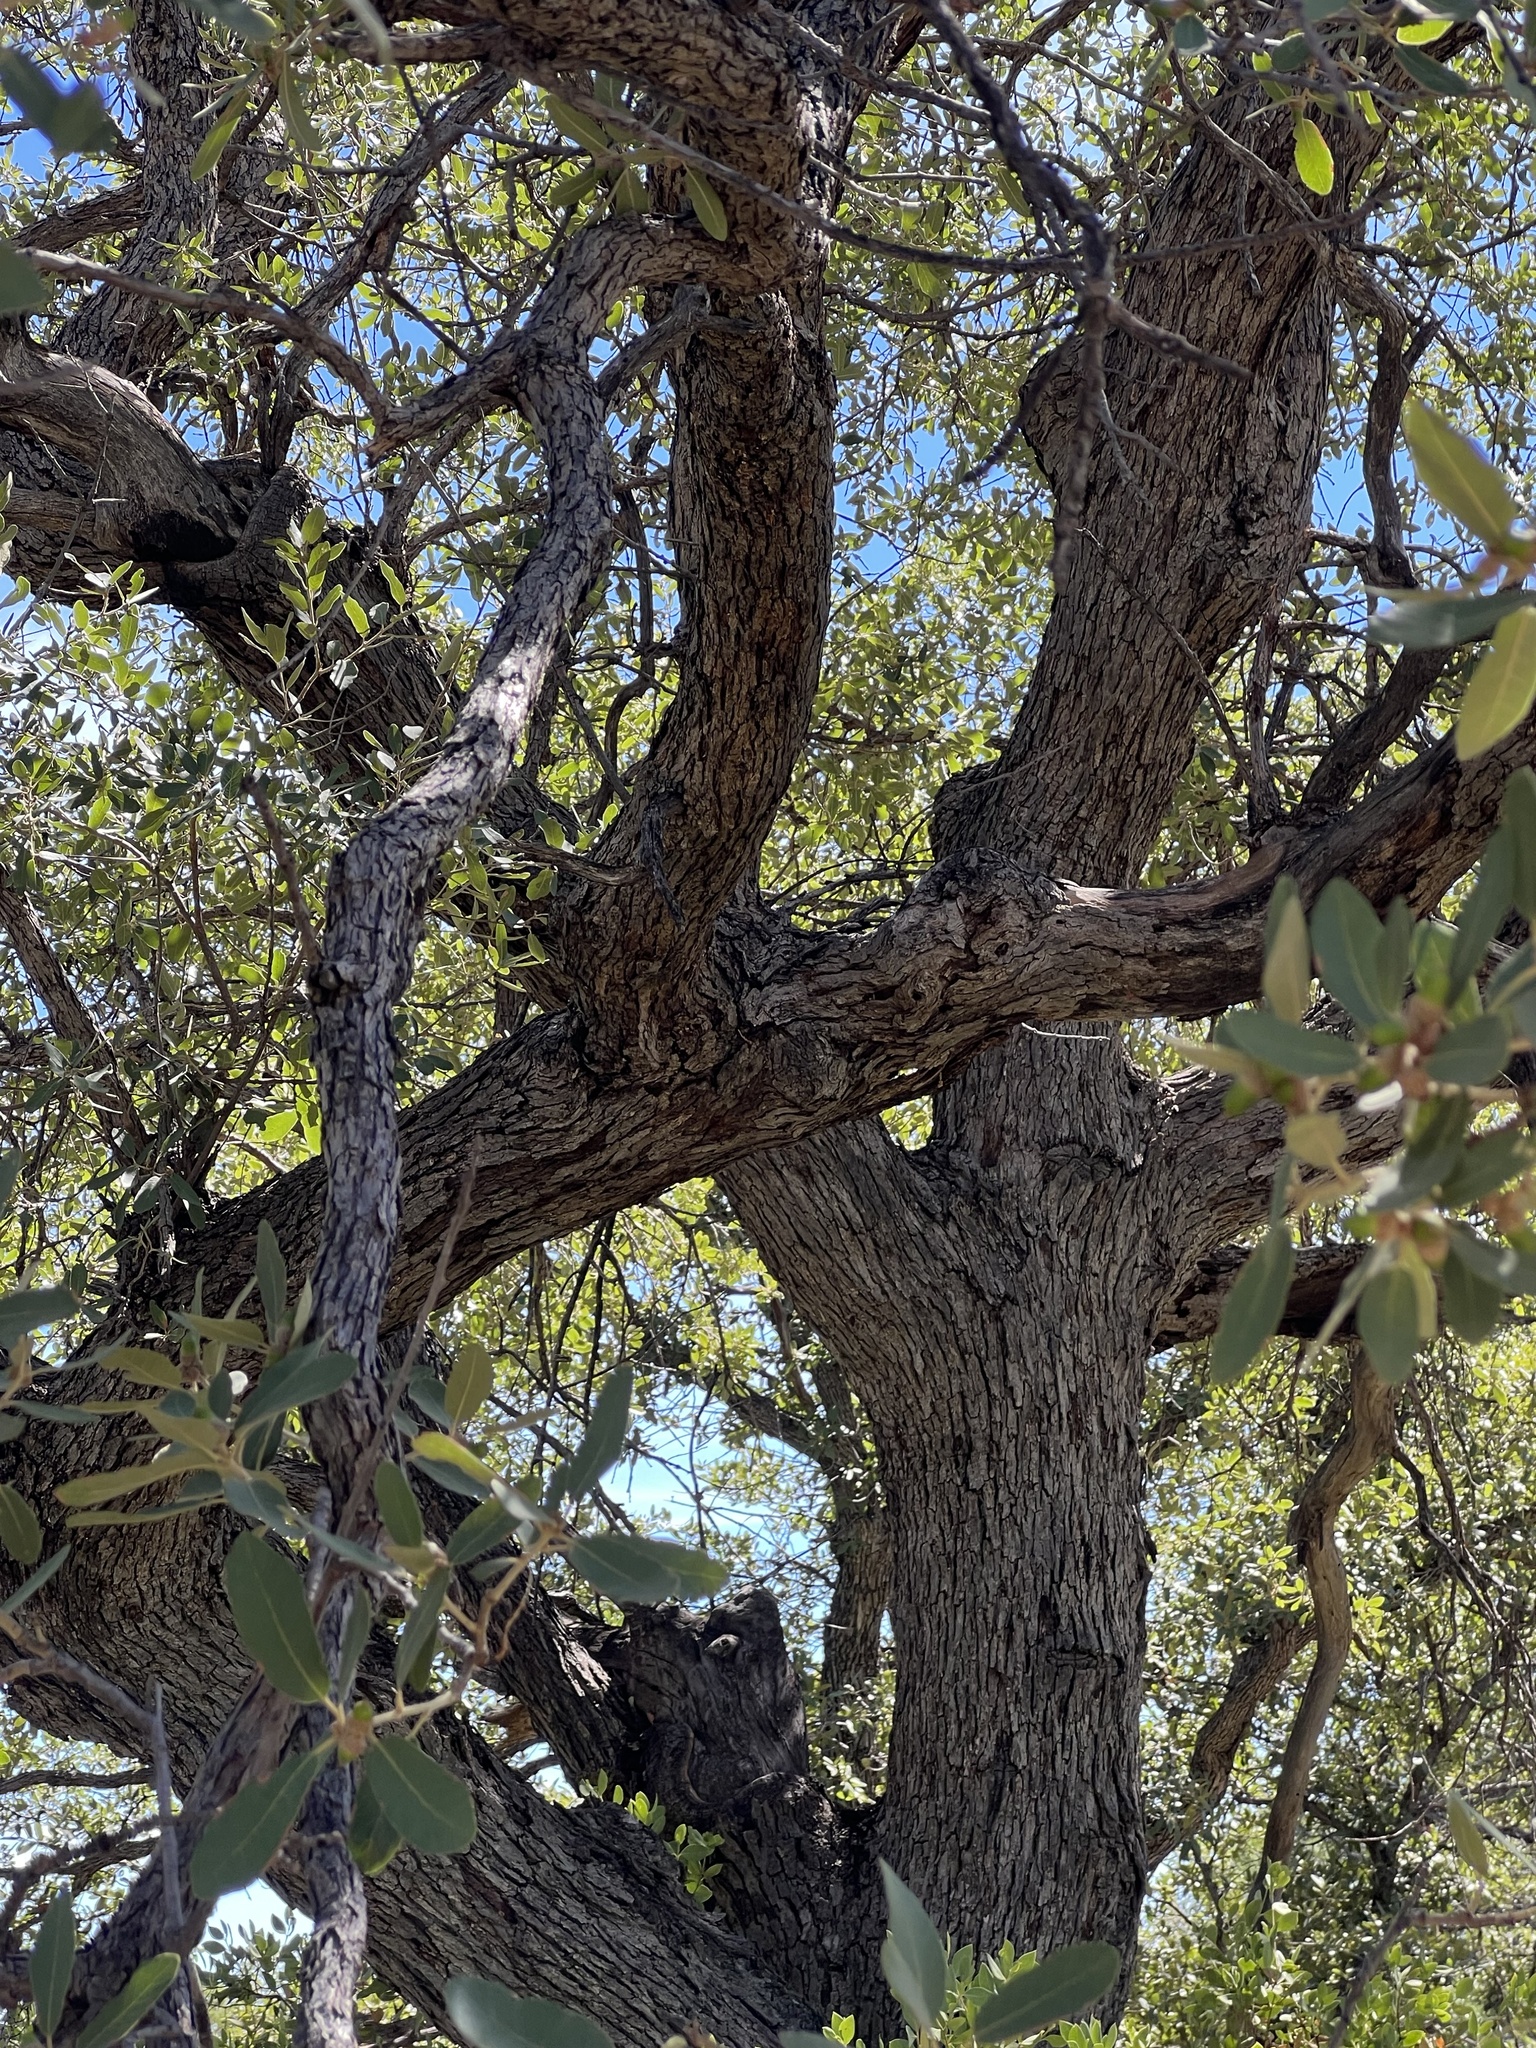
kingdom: Plantae
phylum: Tracheophyta
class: Magnoliopsida
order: Fagales
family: Fagaceae
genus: Quercus
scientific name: Quercus oblongifolia
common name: Mexican blue oak
